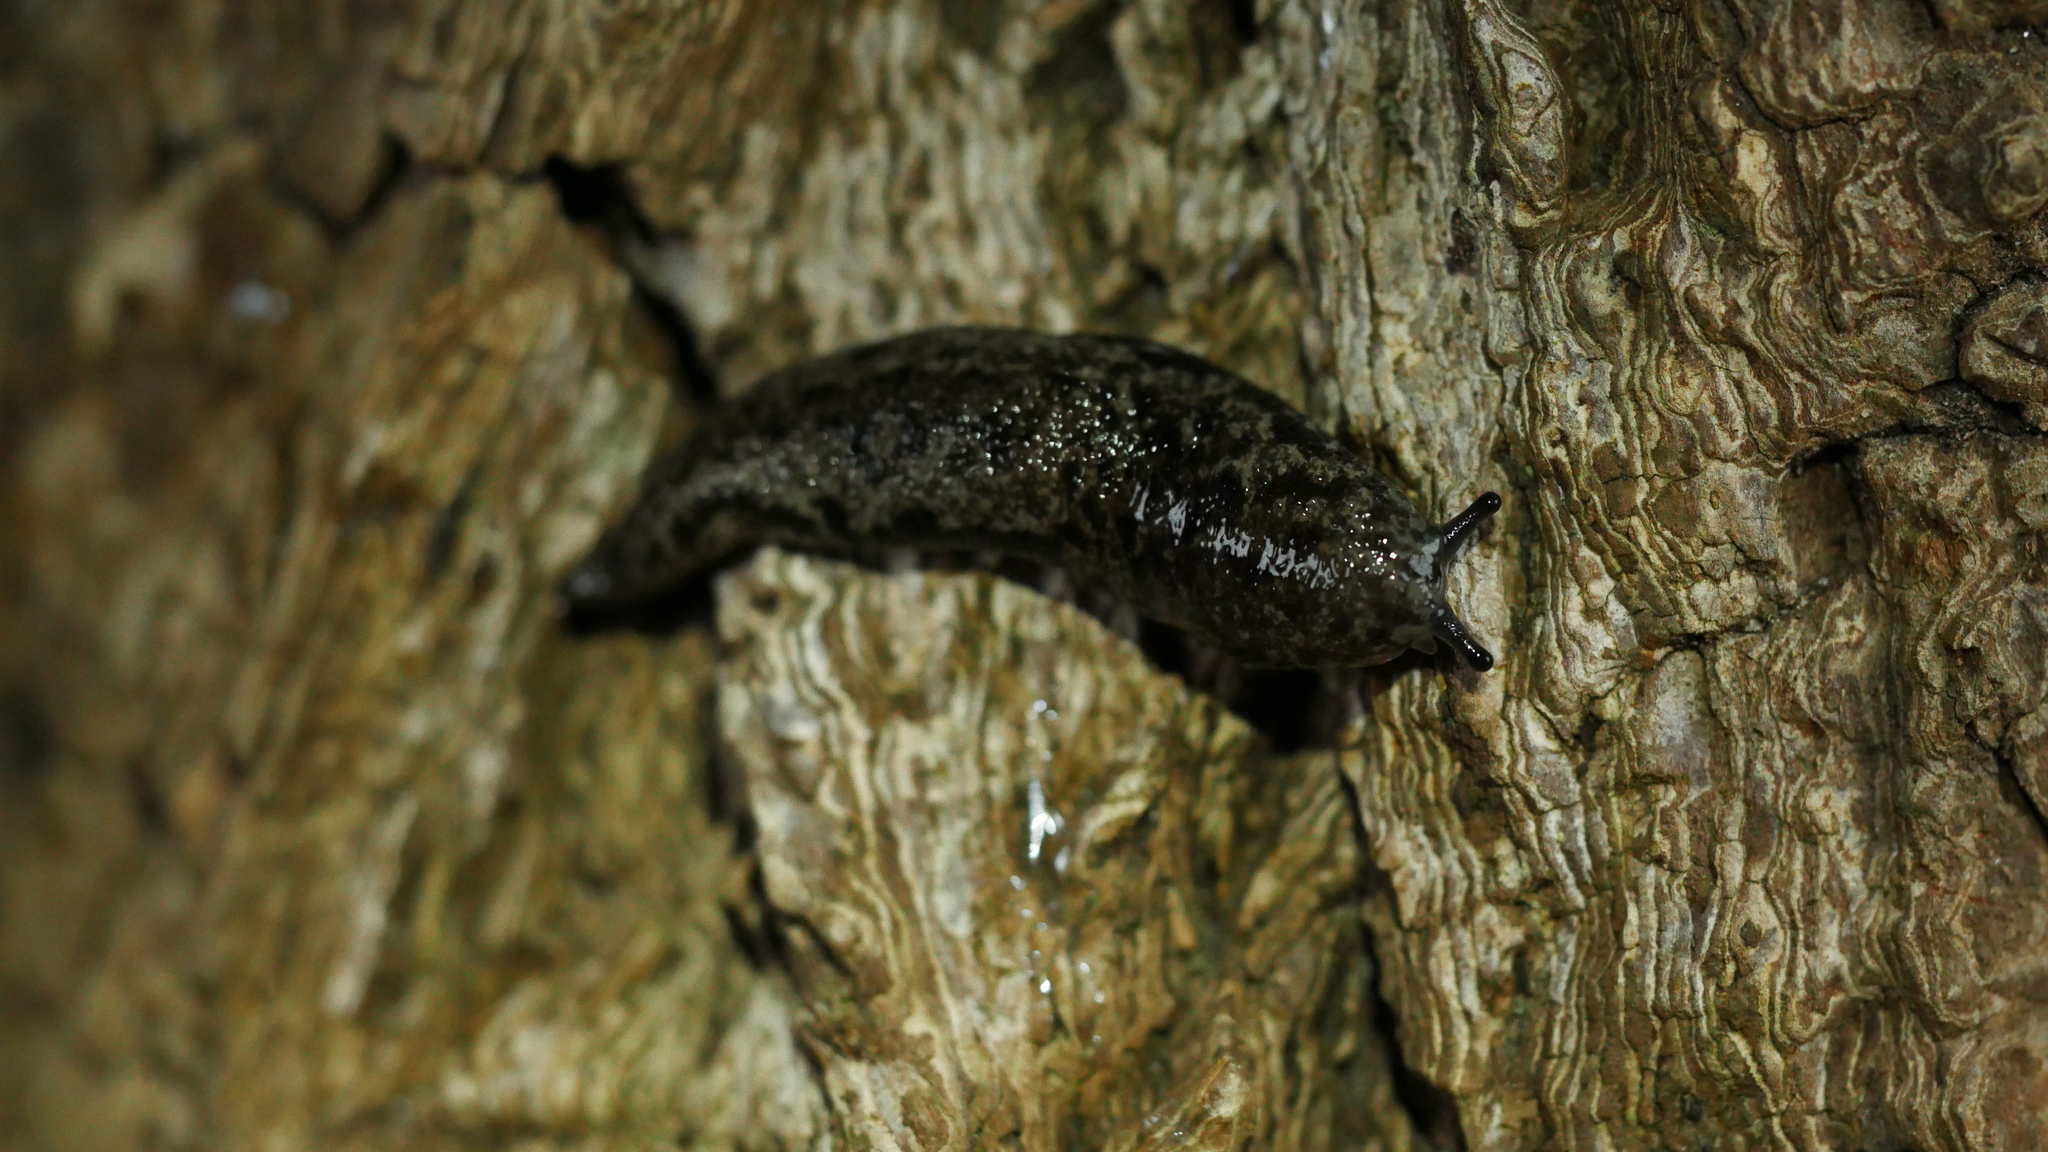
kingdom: Animalia
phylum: Mollusca
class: Gastropoda
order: Stylommatophora
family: Philomycidae
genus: Megapallifera
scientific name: Megapallifera mutabilis
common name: Changeable mantleslug
